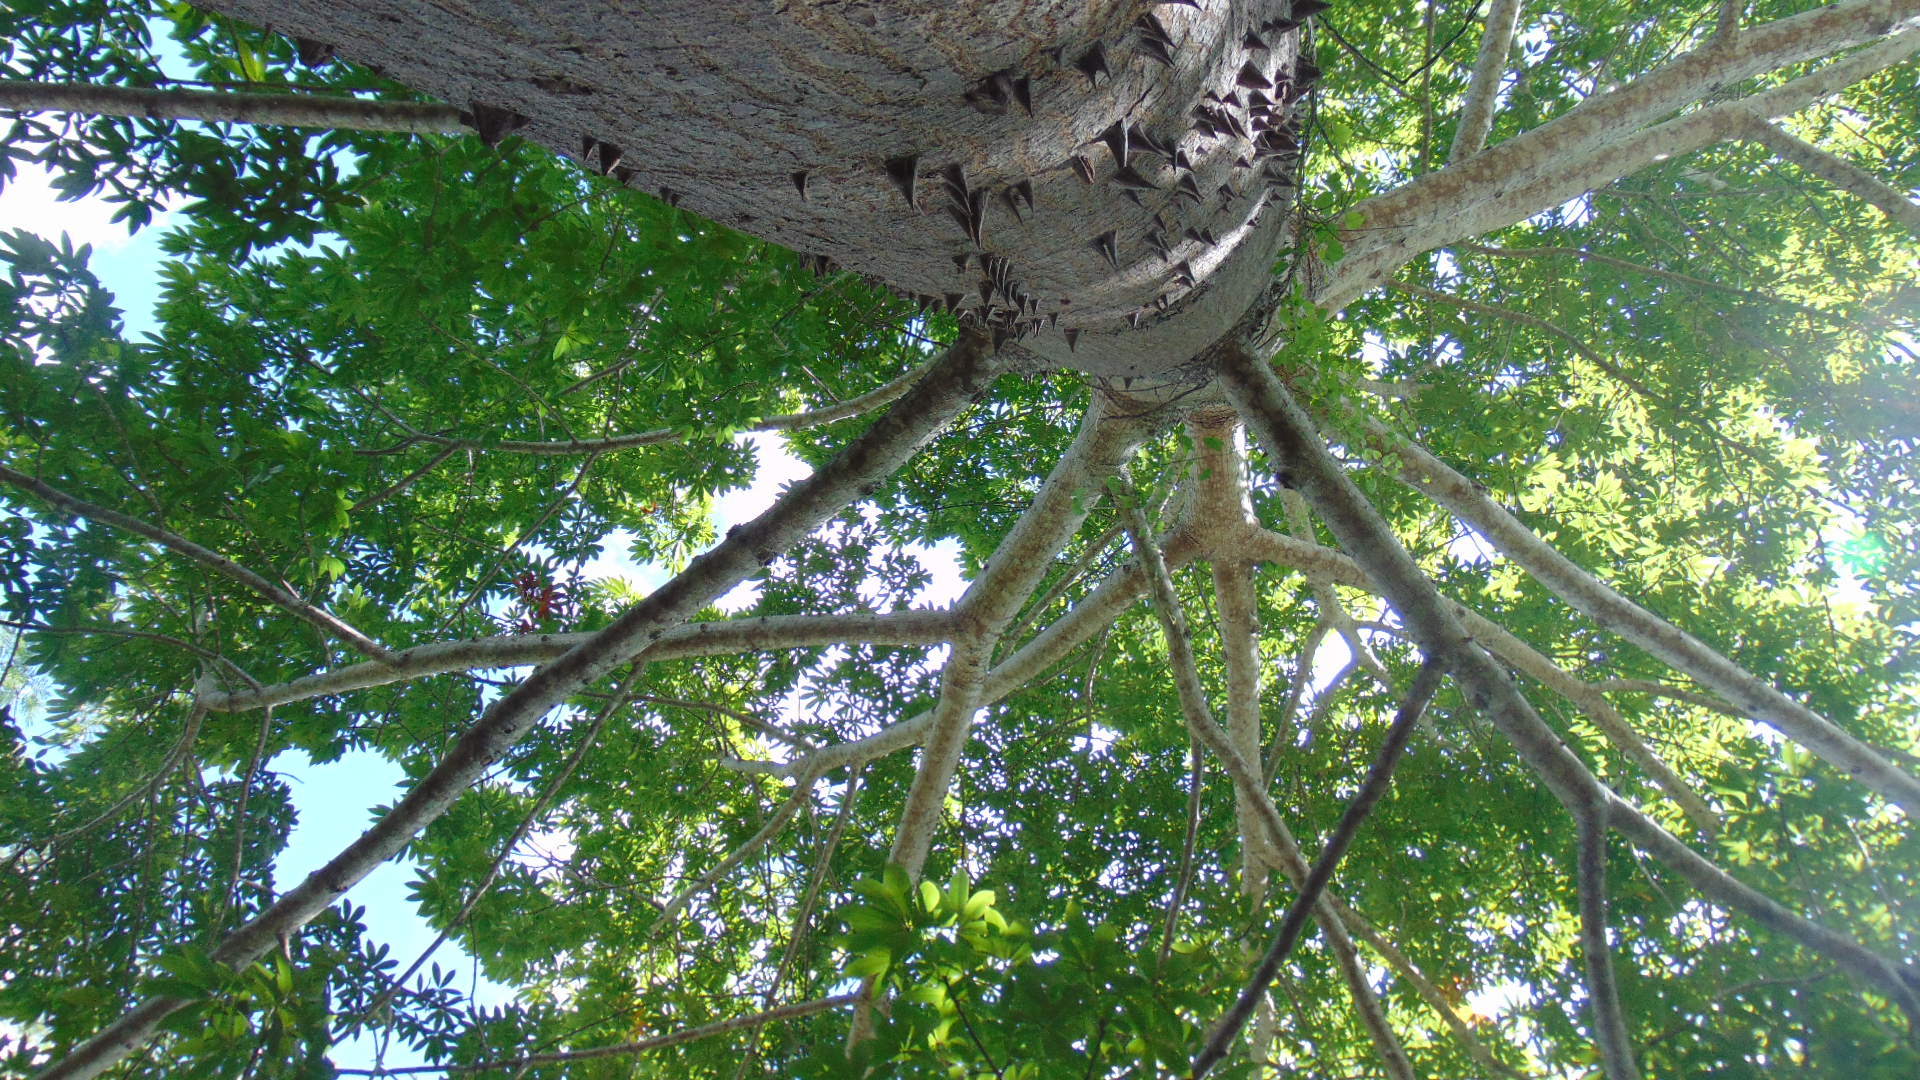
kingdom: Plantae
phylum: Tracheophyta
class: Magnoliopsida
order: Malvales
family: Malvaceae
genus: Ceiba
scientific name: Ceiba pentandra
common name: Kapok
